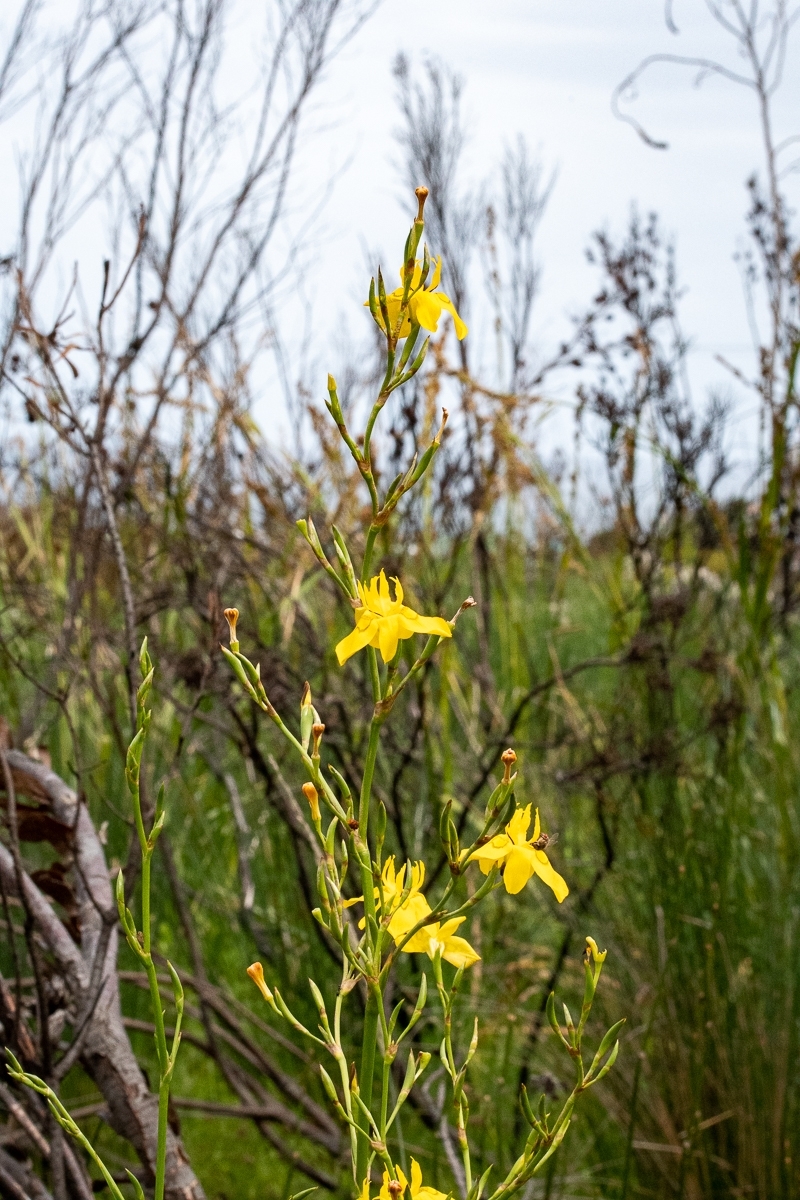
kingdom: Plantae
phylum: Tracheophyta
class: Liliopsida
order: Asparagales
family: Iridaceae
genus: Moraea
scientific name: Moraea ramosissima
